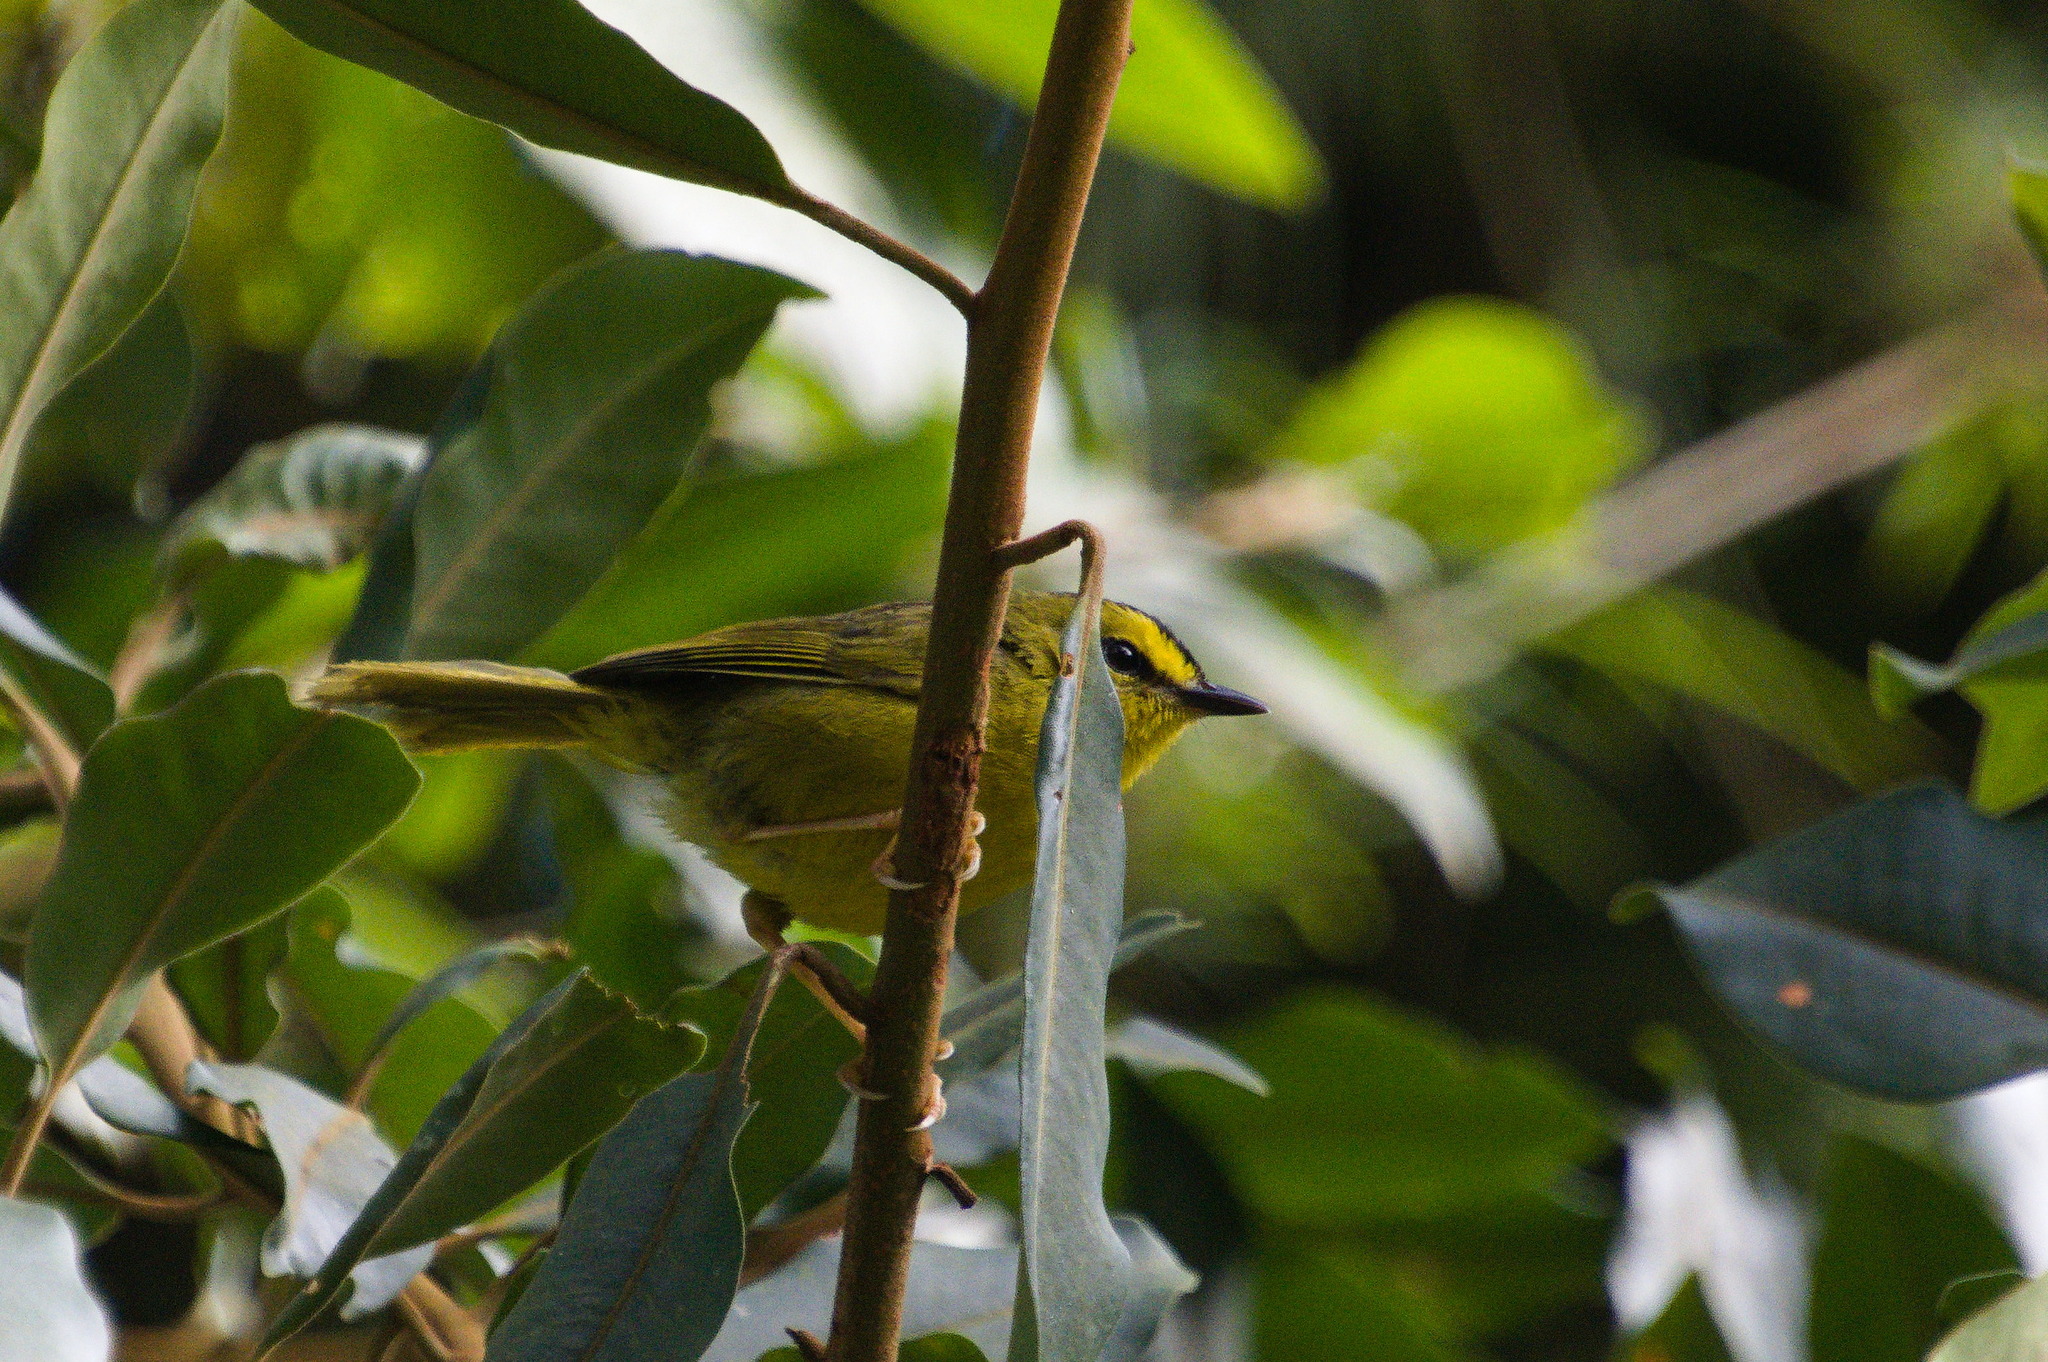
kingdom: Animalia
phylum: Chordata
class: Aves
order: Passeriformes
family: Parulidae
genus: Myiothlypis
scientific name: Myiothlypis nigrocristata
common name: Black-crested warbler
